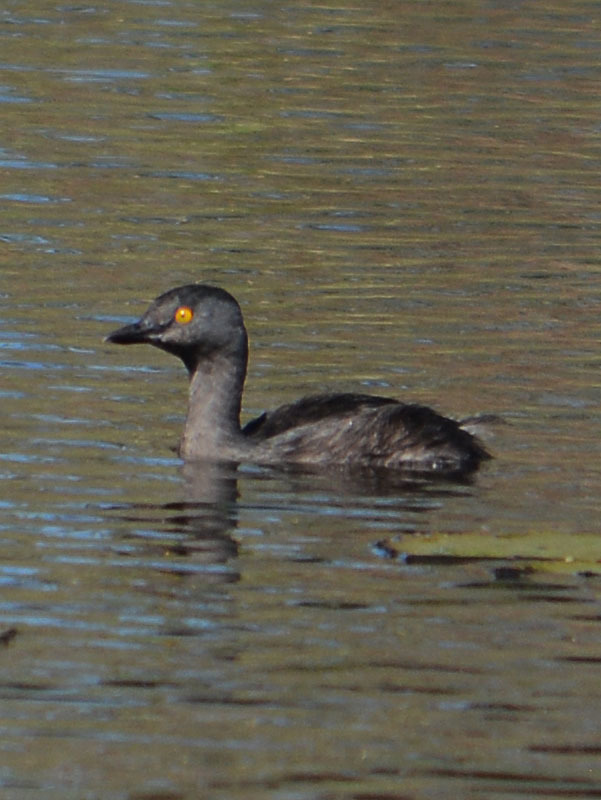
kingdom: Animalia
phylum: Chordata
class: Aves
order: Podicipediformes
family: Podicipedidae
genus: Tachybaptus
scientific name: Tachybaptus dominicus
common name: Least grebe
